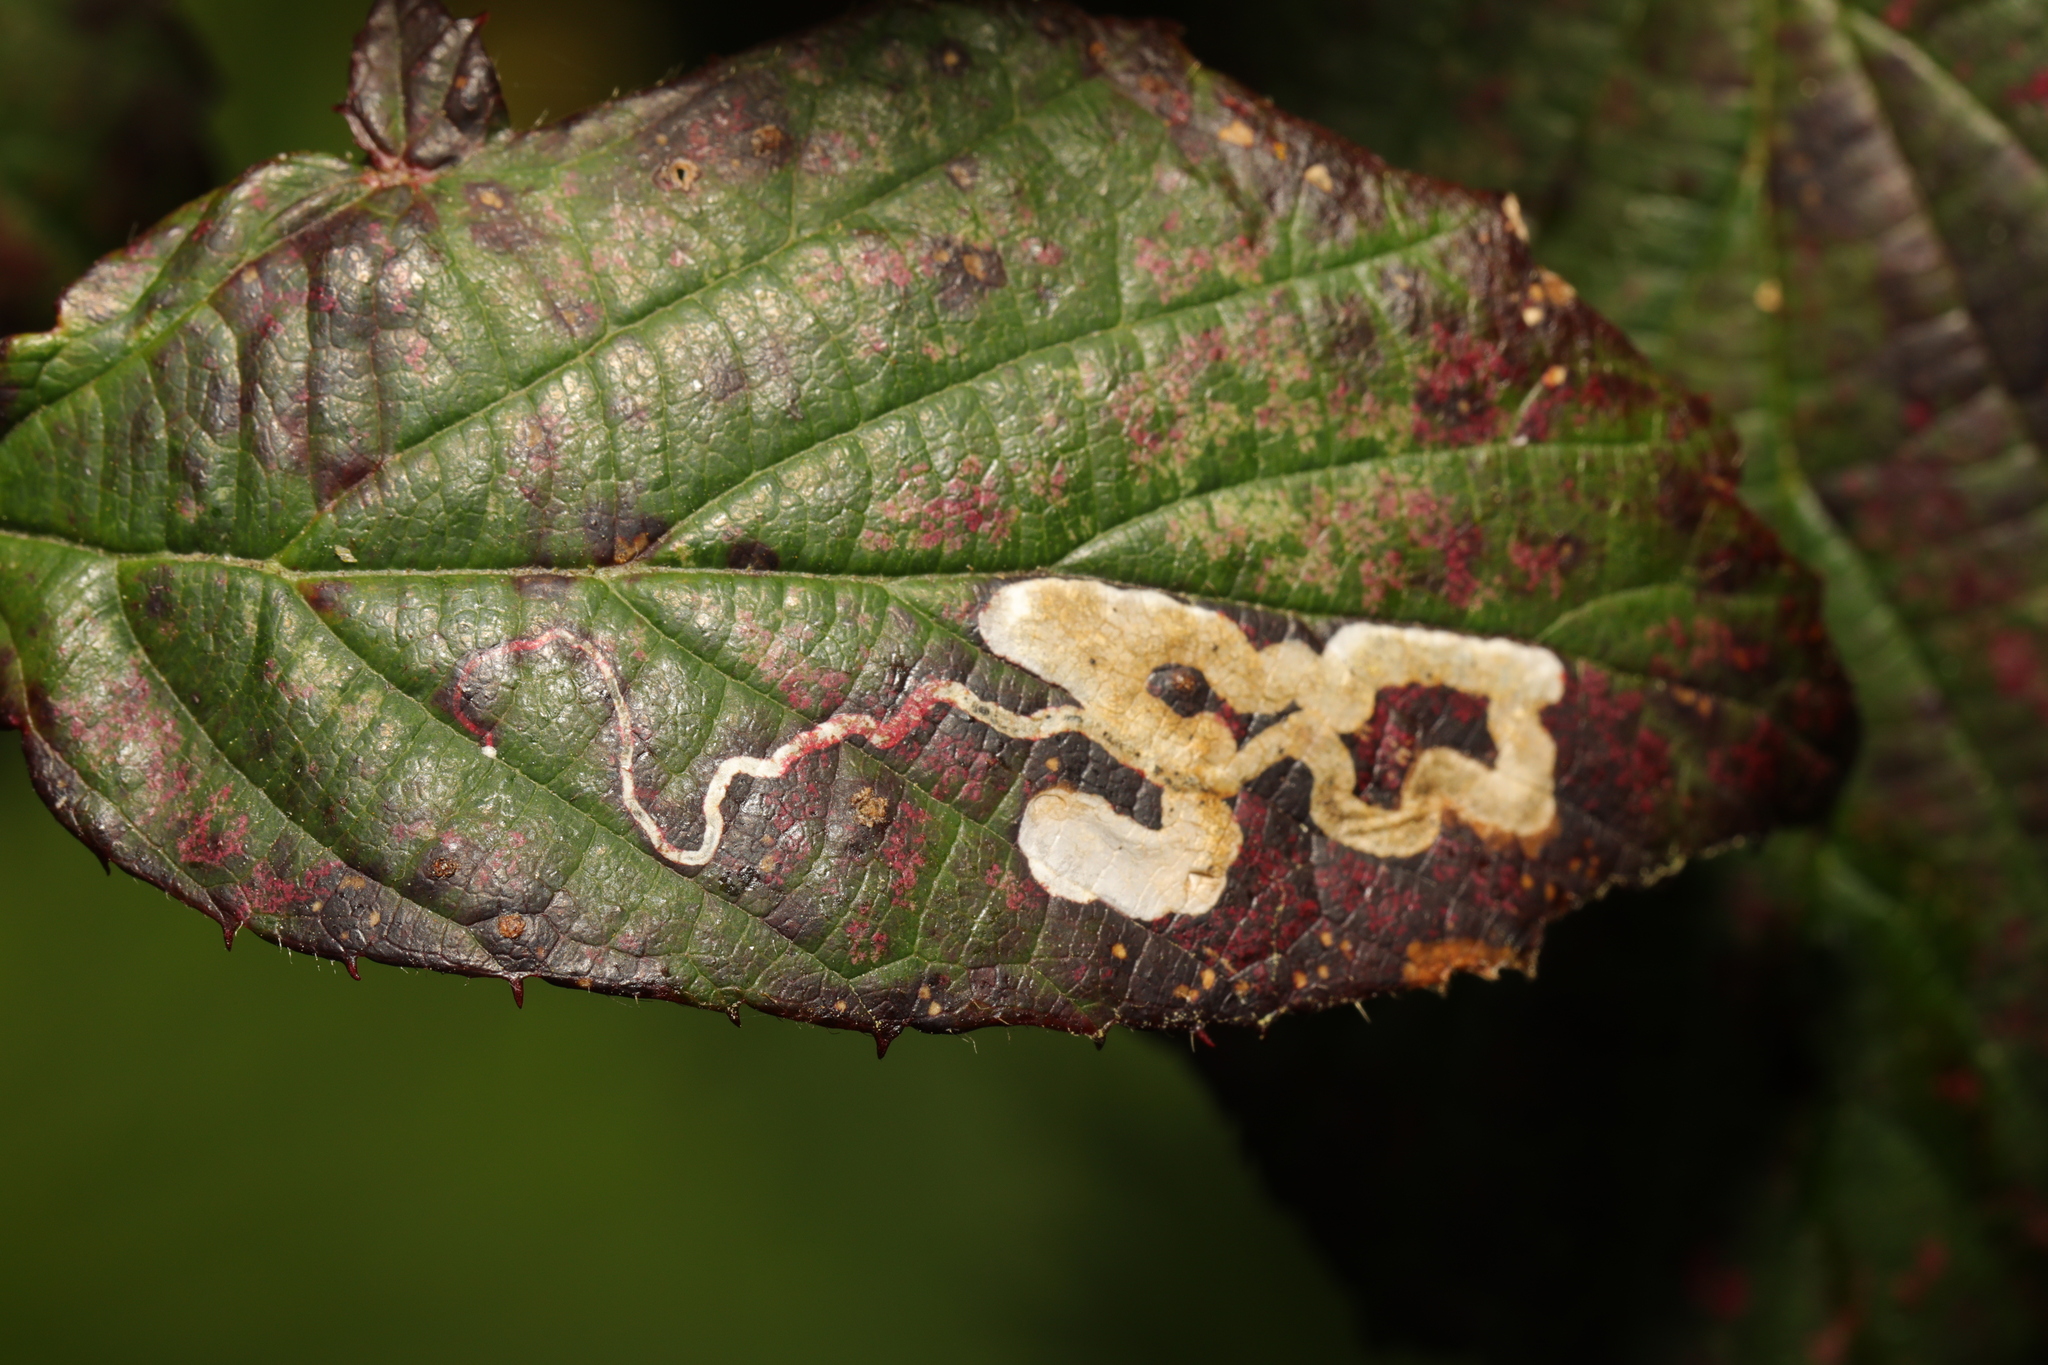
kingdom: Animalia
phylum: Arthropoda
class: Insecta
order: Lepidoptera
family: Nepticulidae
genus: Stigmella
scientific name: Stigmella aurella
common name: Golden pigmy
